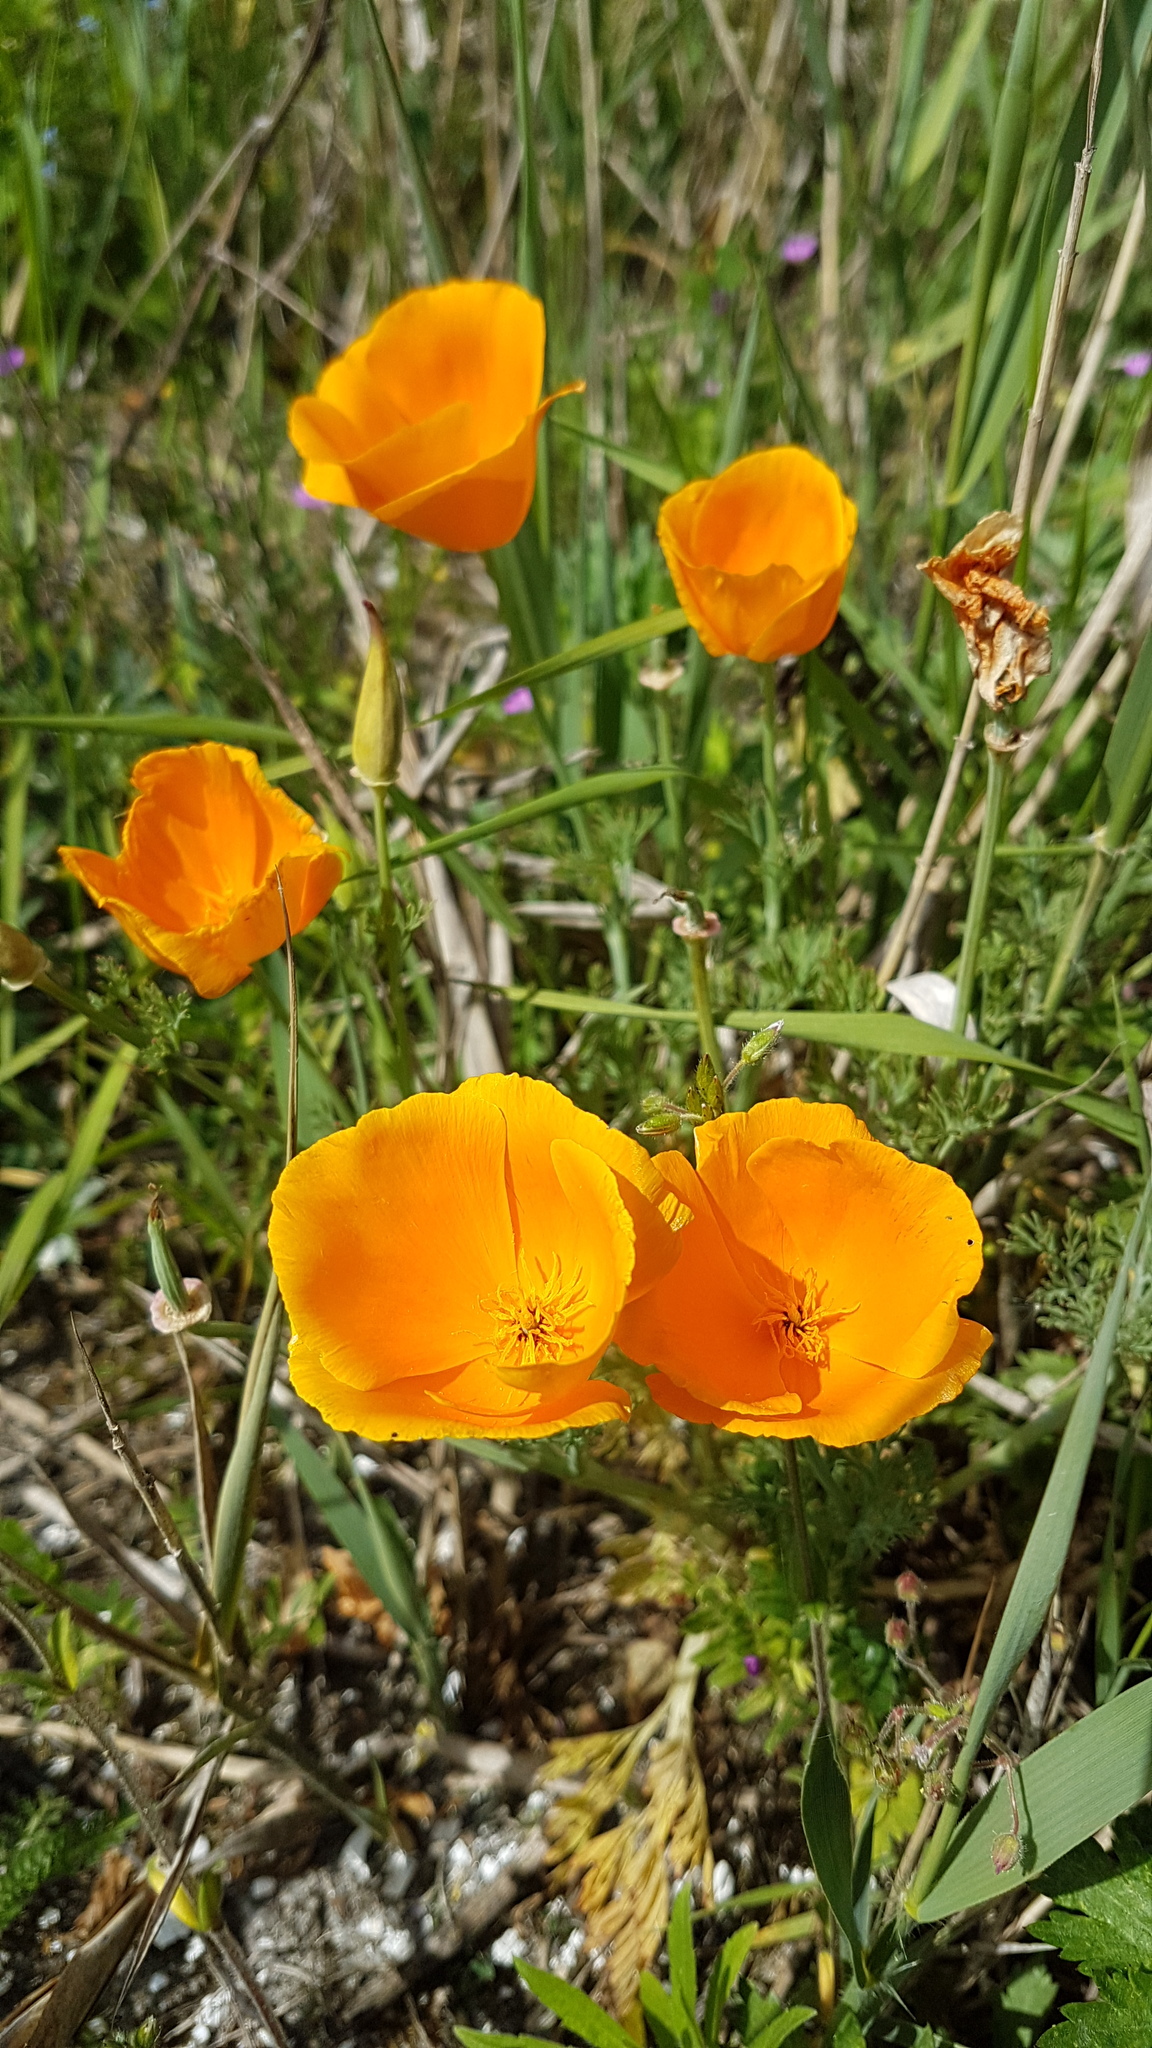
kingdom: Plantae
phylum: Tracheophyta
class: Magnoliopsida
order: Ranunculales
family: Papaveraceae
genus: Eschscholzia
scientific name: Eschscholzia californica
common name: California poppy
